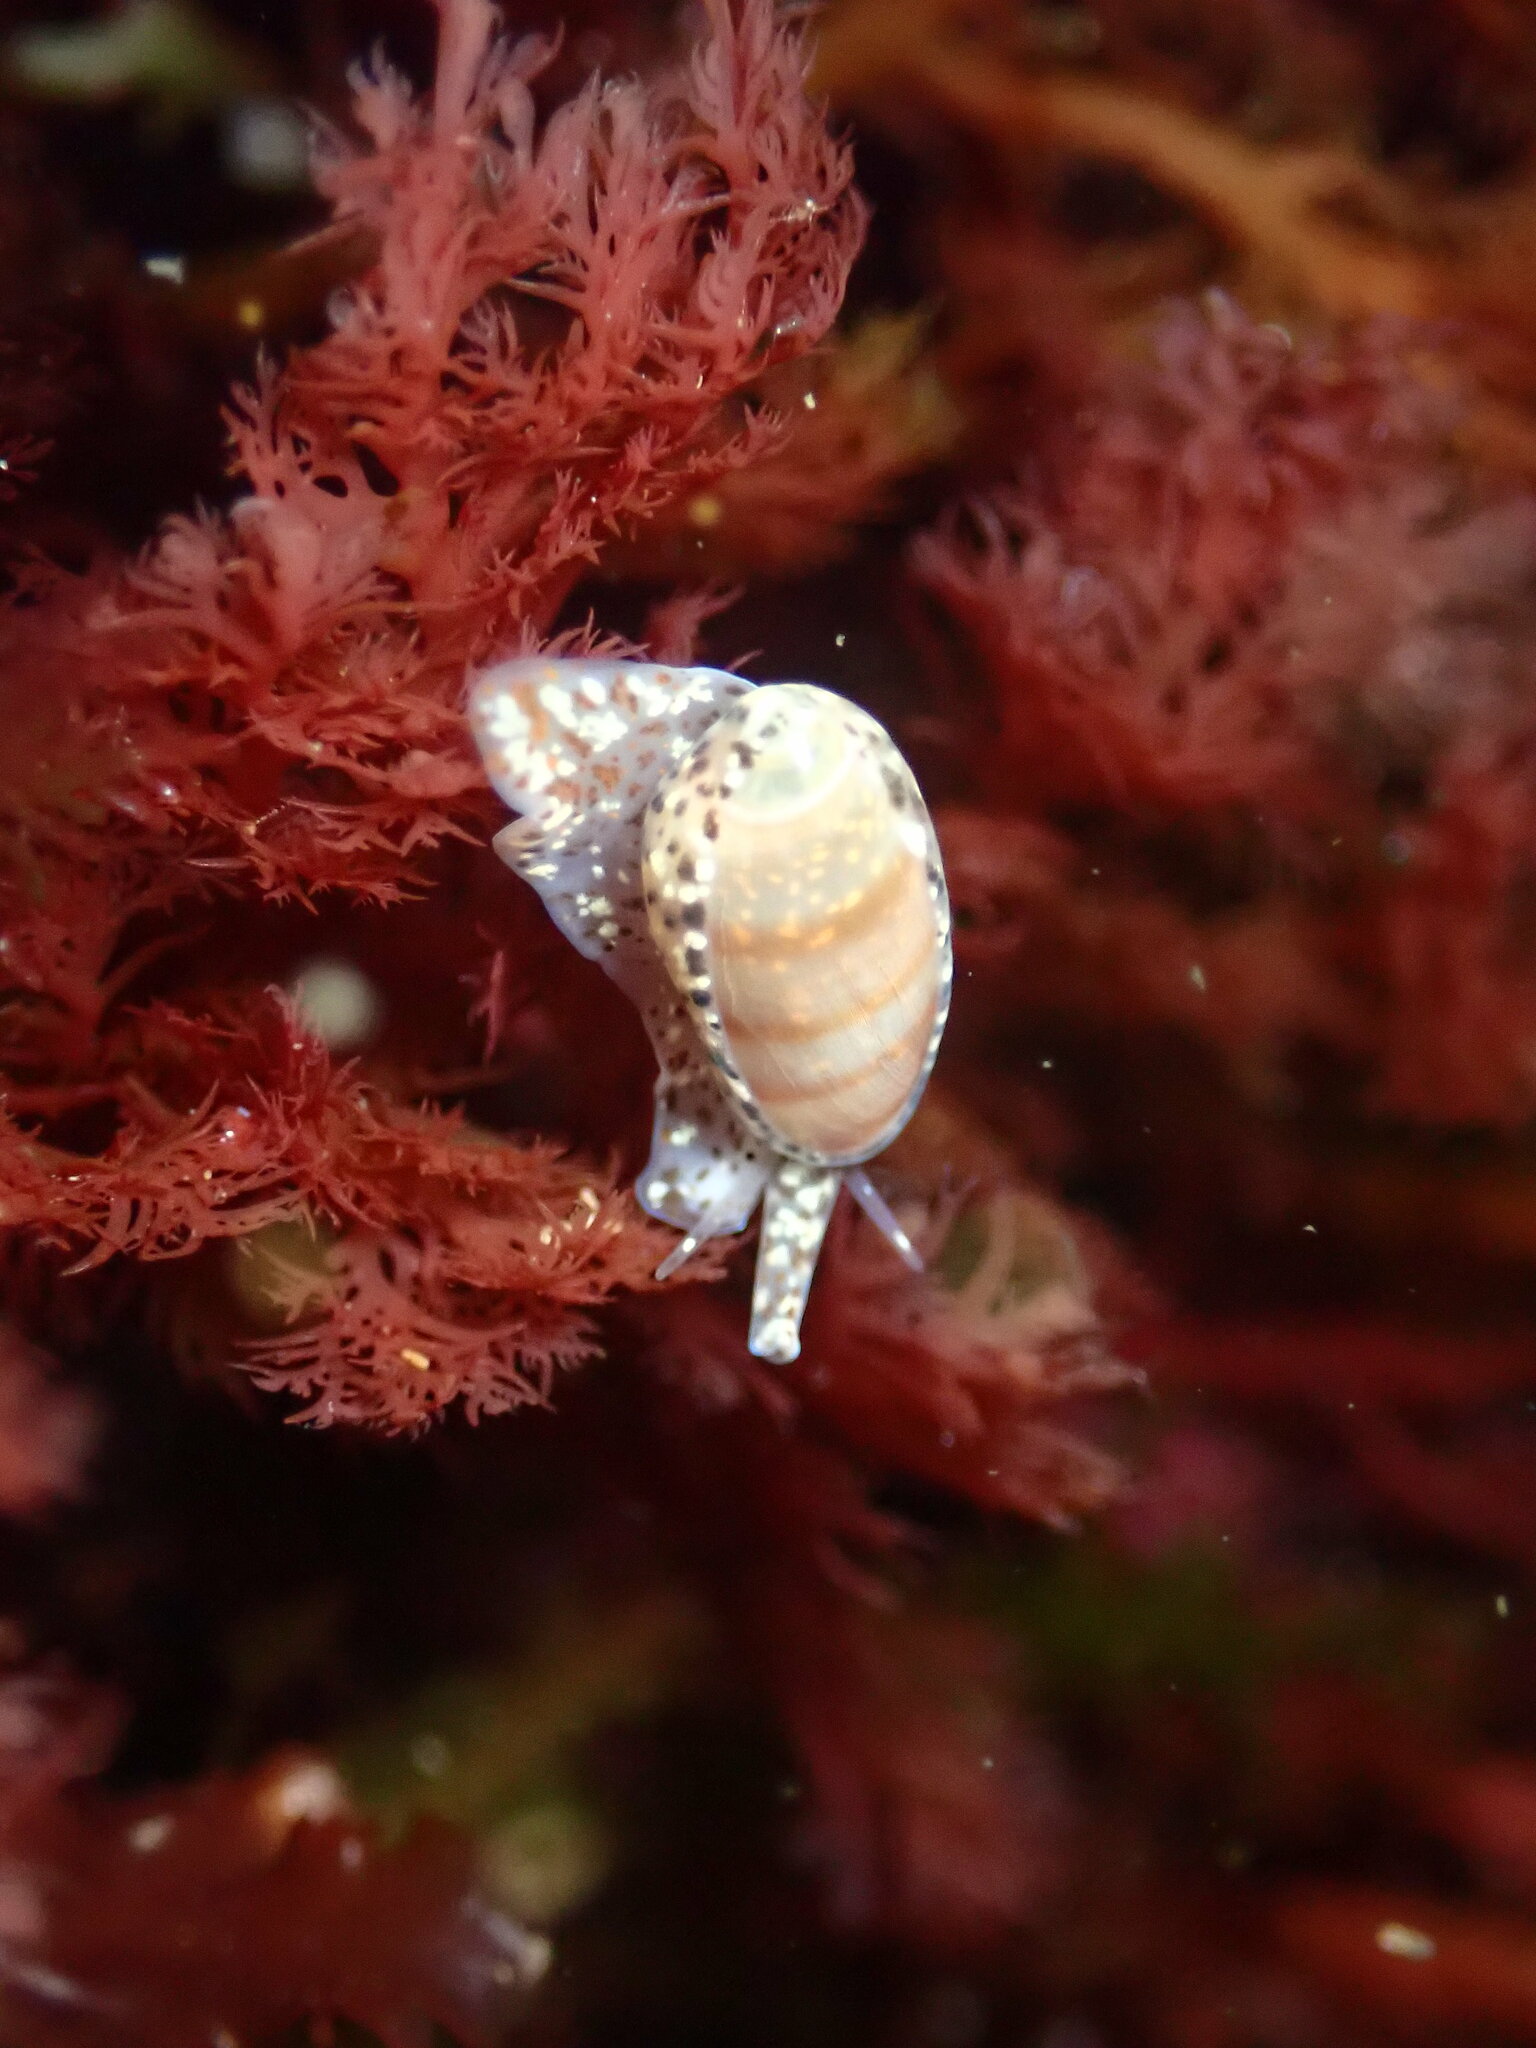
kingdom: Animalia
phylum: Mollusca
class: Gastropoda
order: Neogastropoda
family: Marginellidae
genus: Volvarina
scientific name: Volvarina taeniolata
